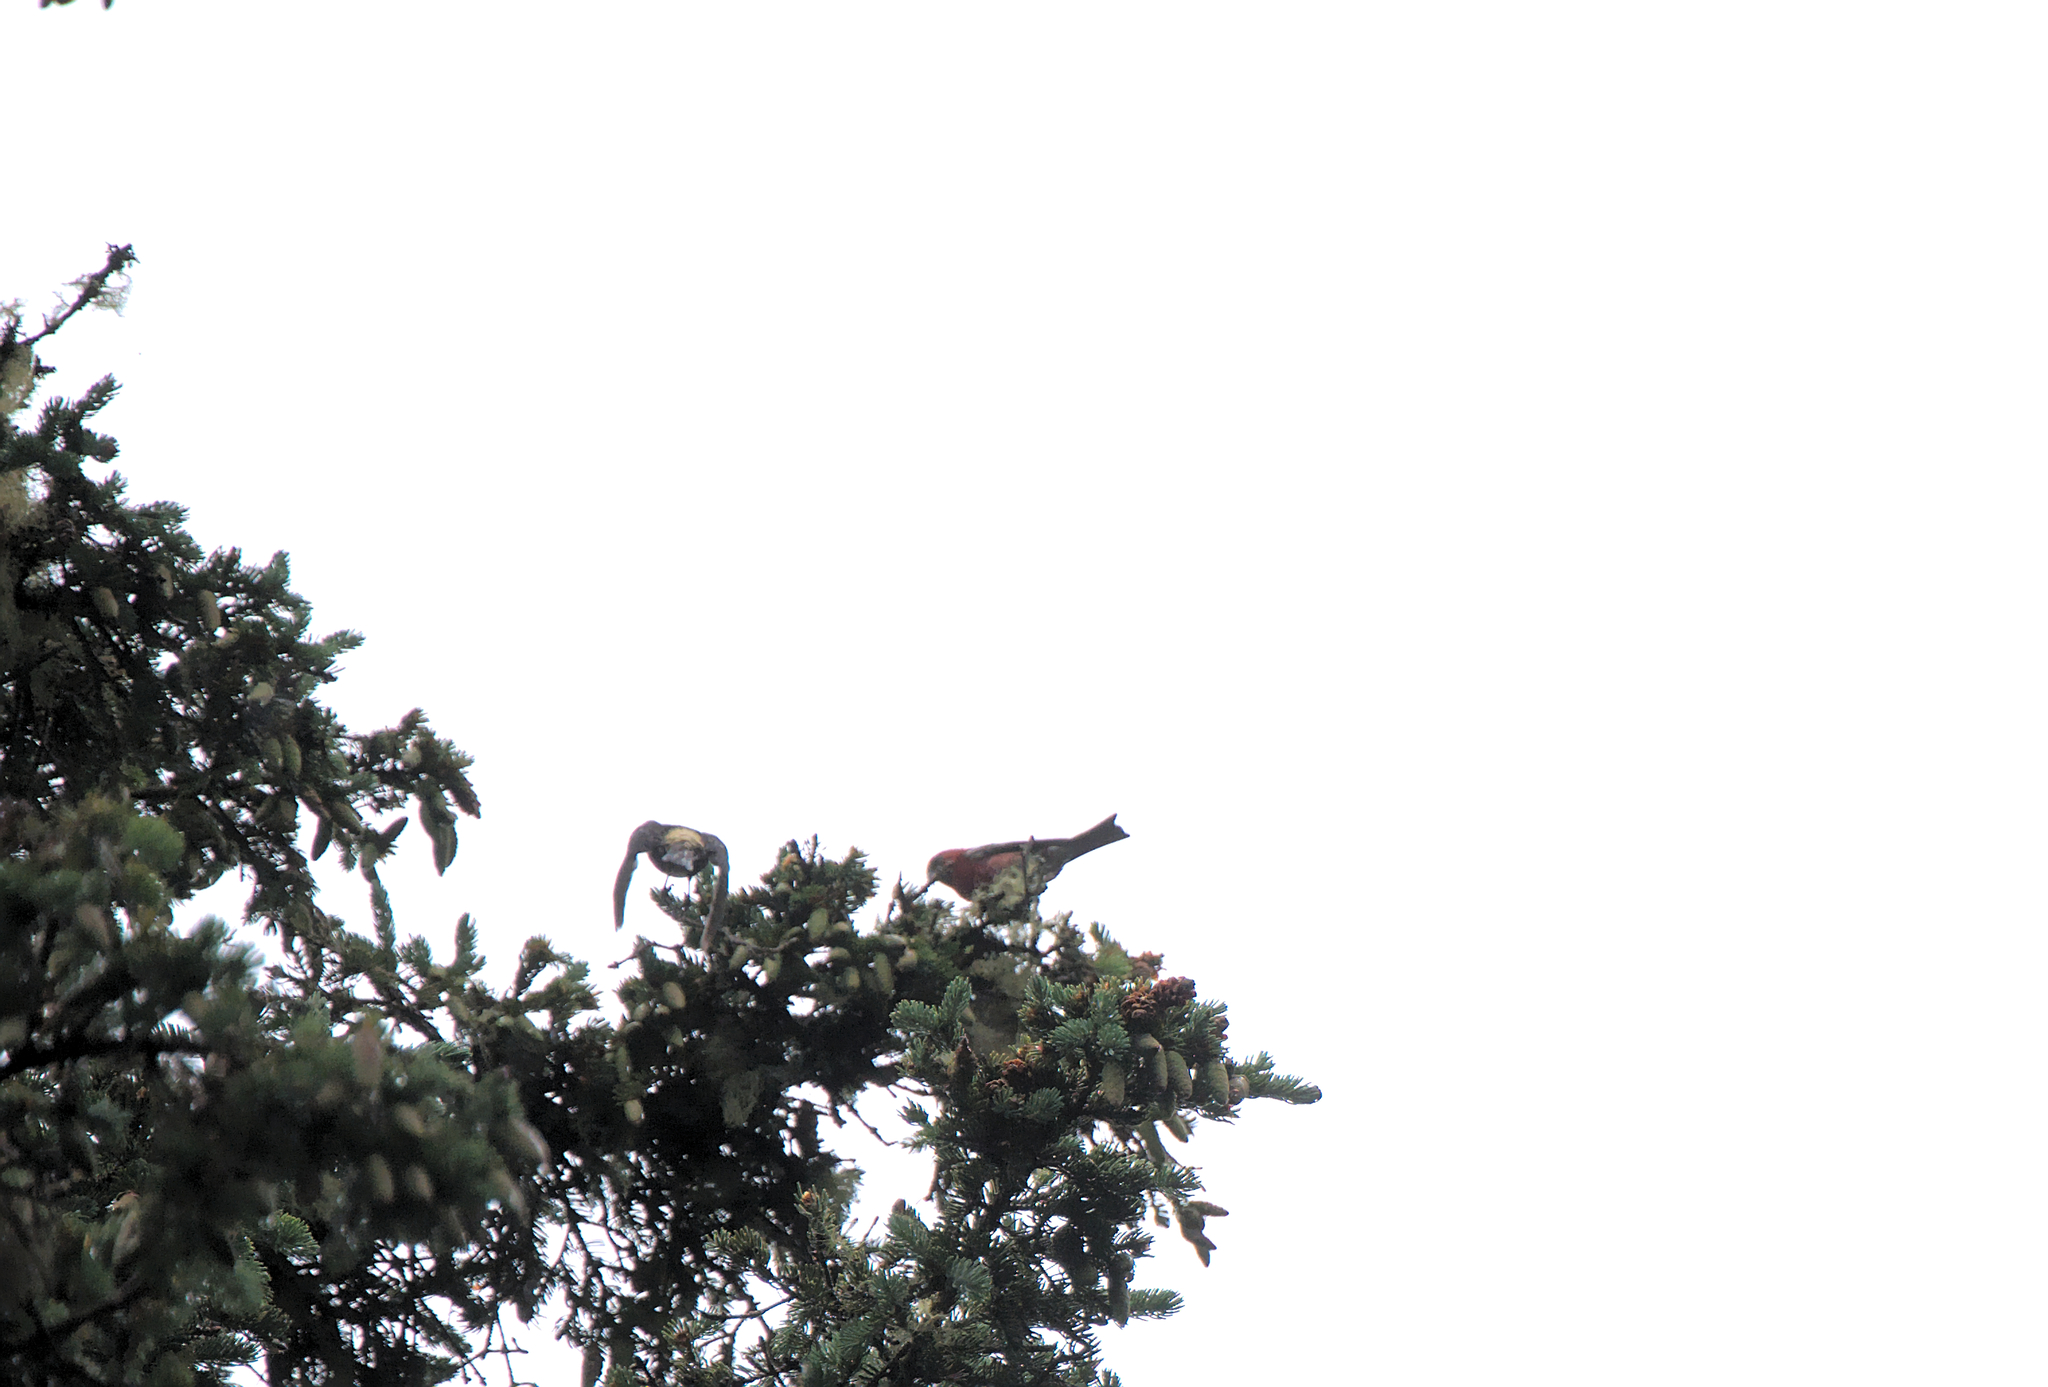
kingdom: Animalia
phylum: Chordata
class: Aves
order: Passeriformes
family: Fringillidae
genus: Loxia
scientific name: Loxia leucoptera
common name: Two-barred crossbill
